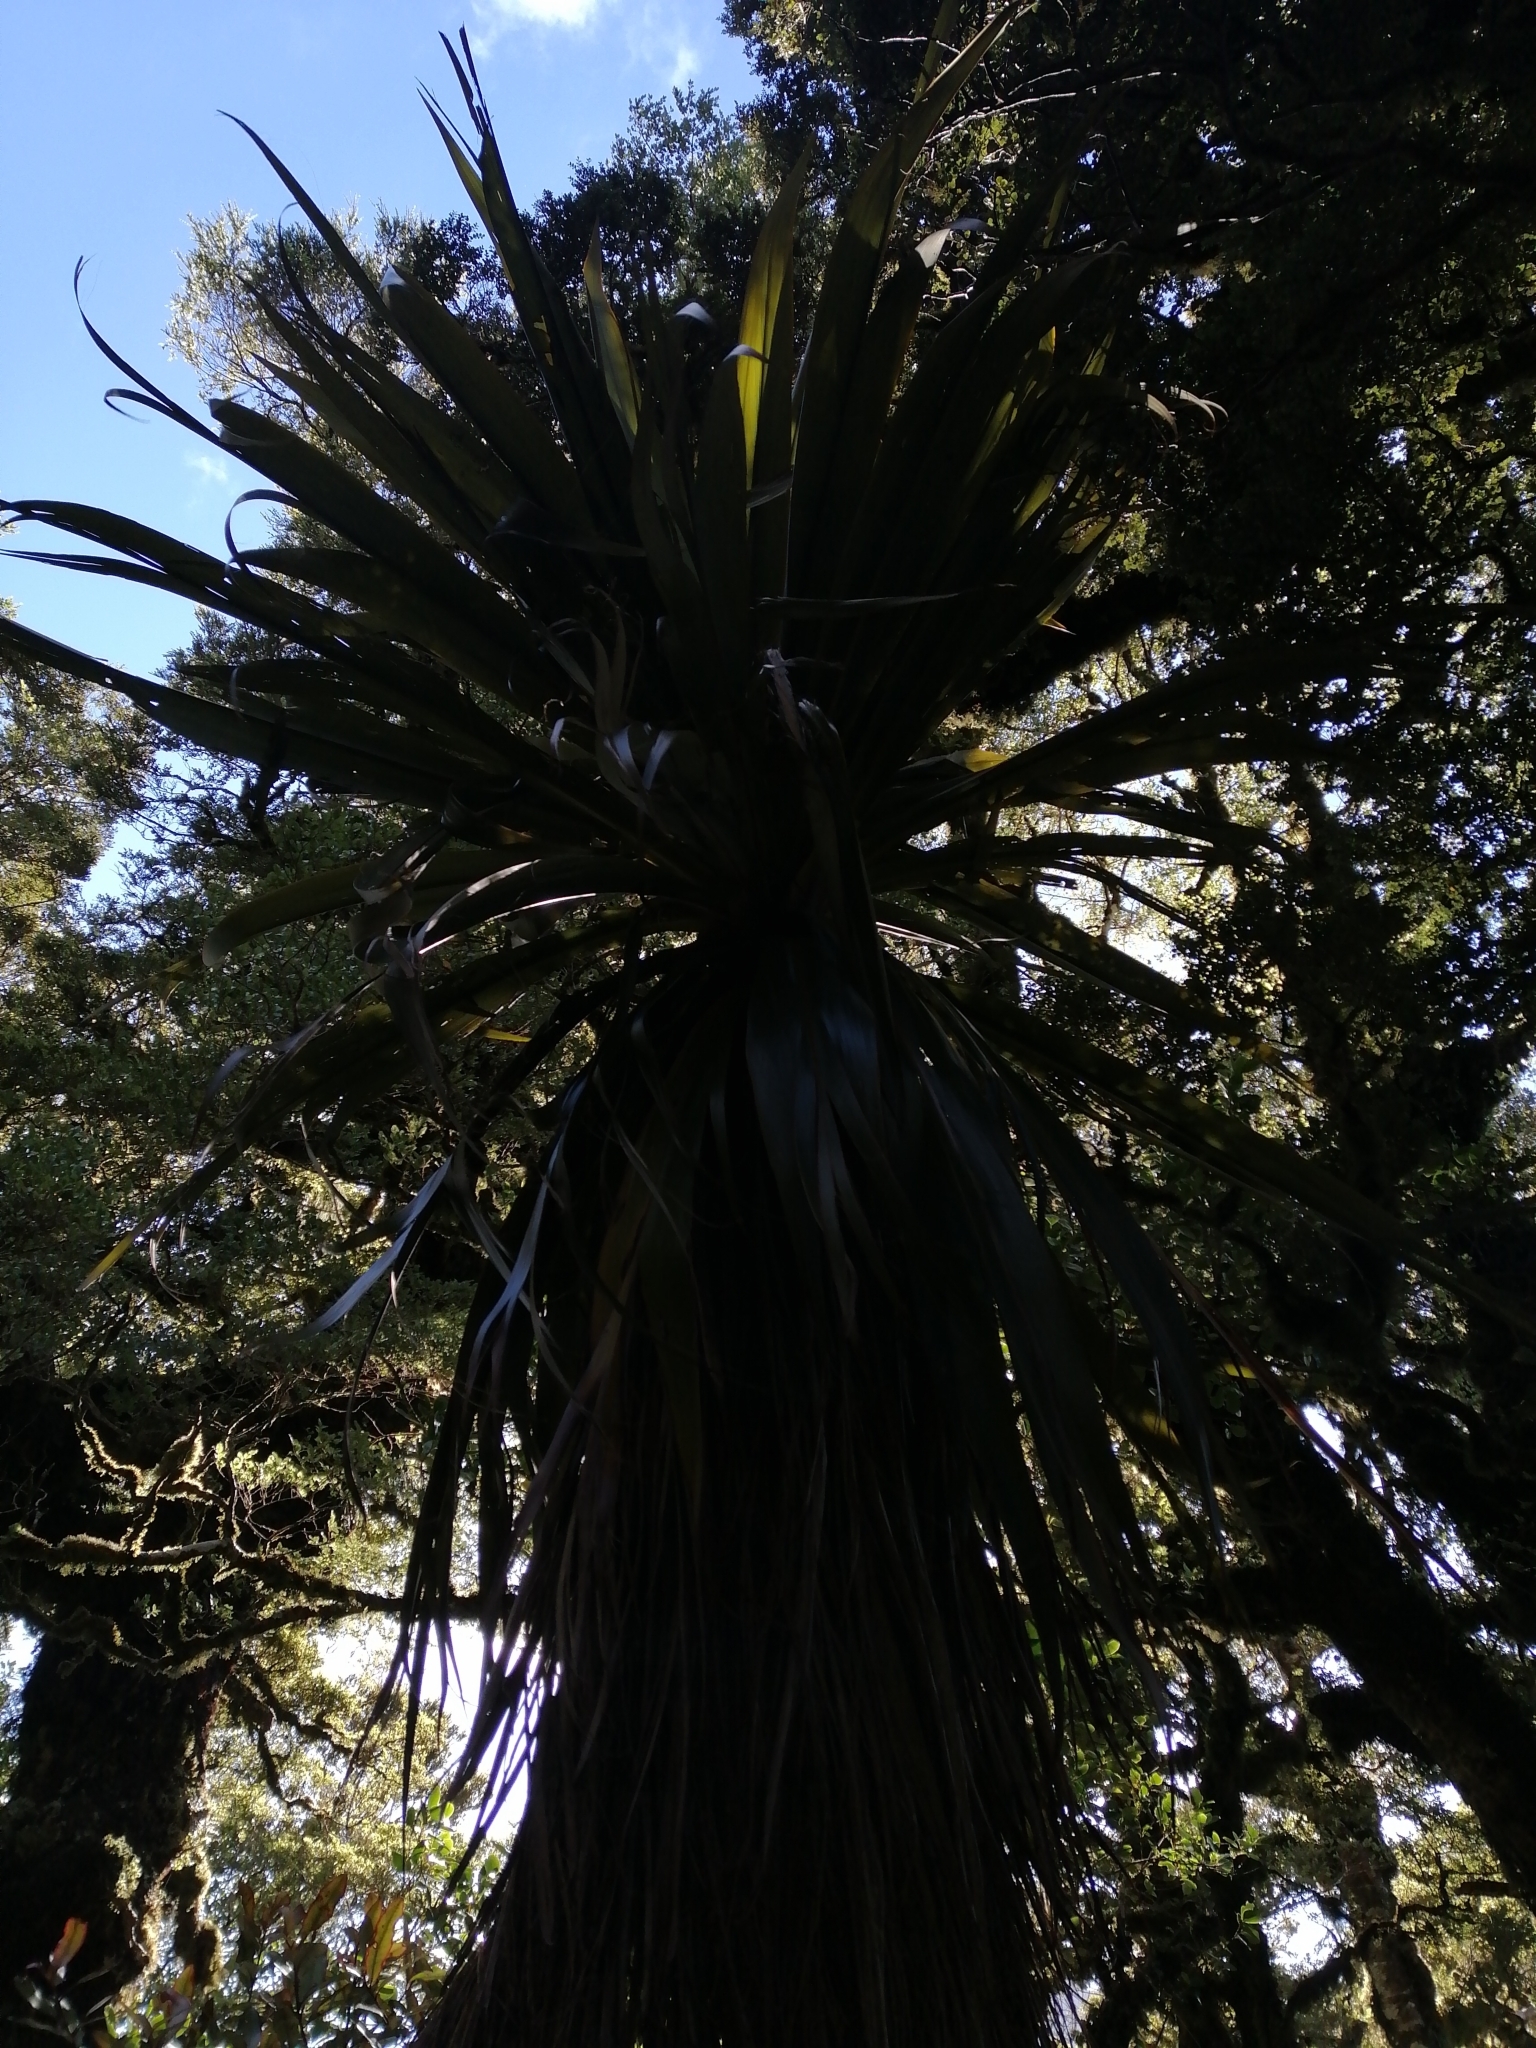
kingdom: Plantae
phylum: Tracheophyta
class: Liliopsida
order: Asparagales
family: Asparagaceae
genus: Cordyline
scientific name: Cordyline indivisa
